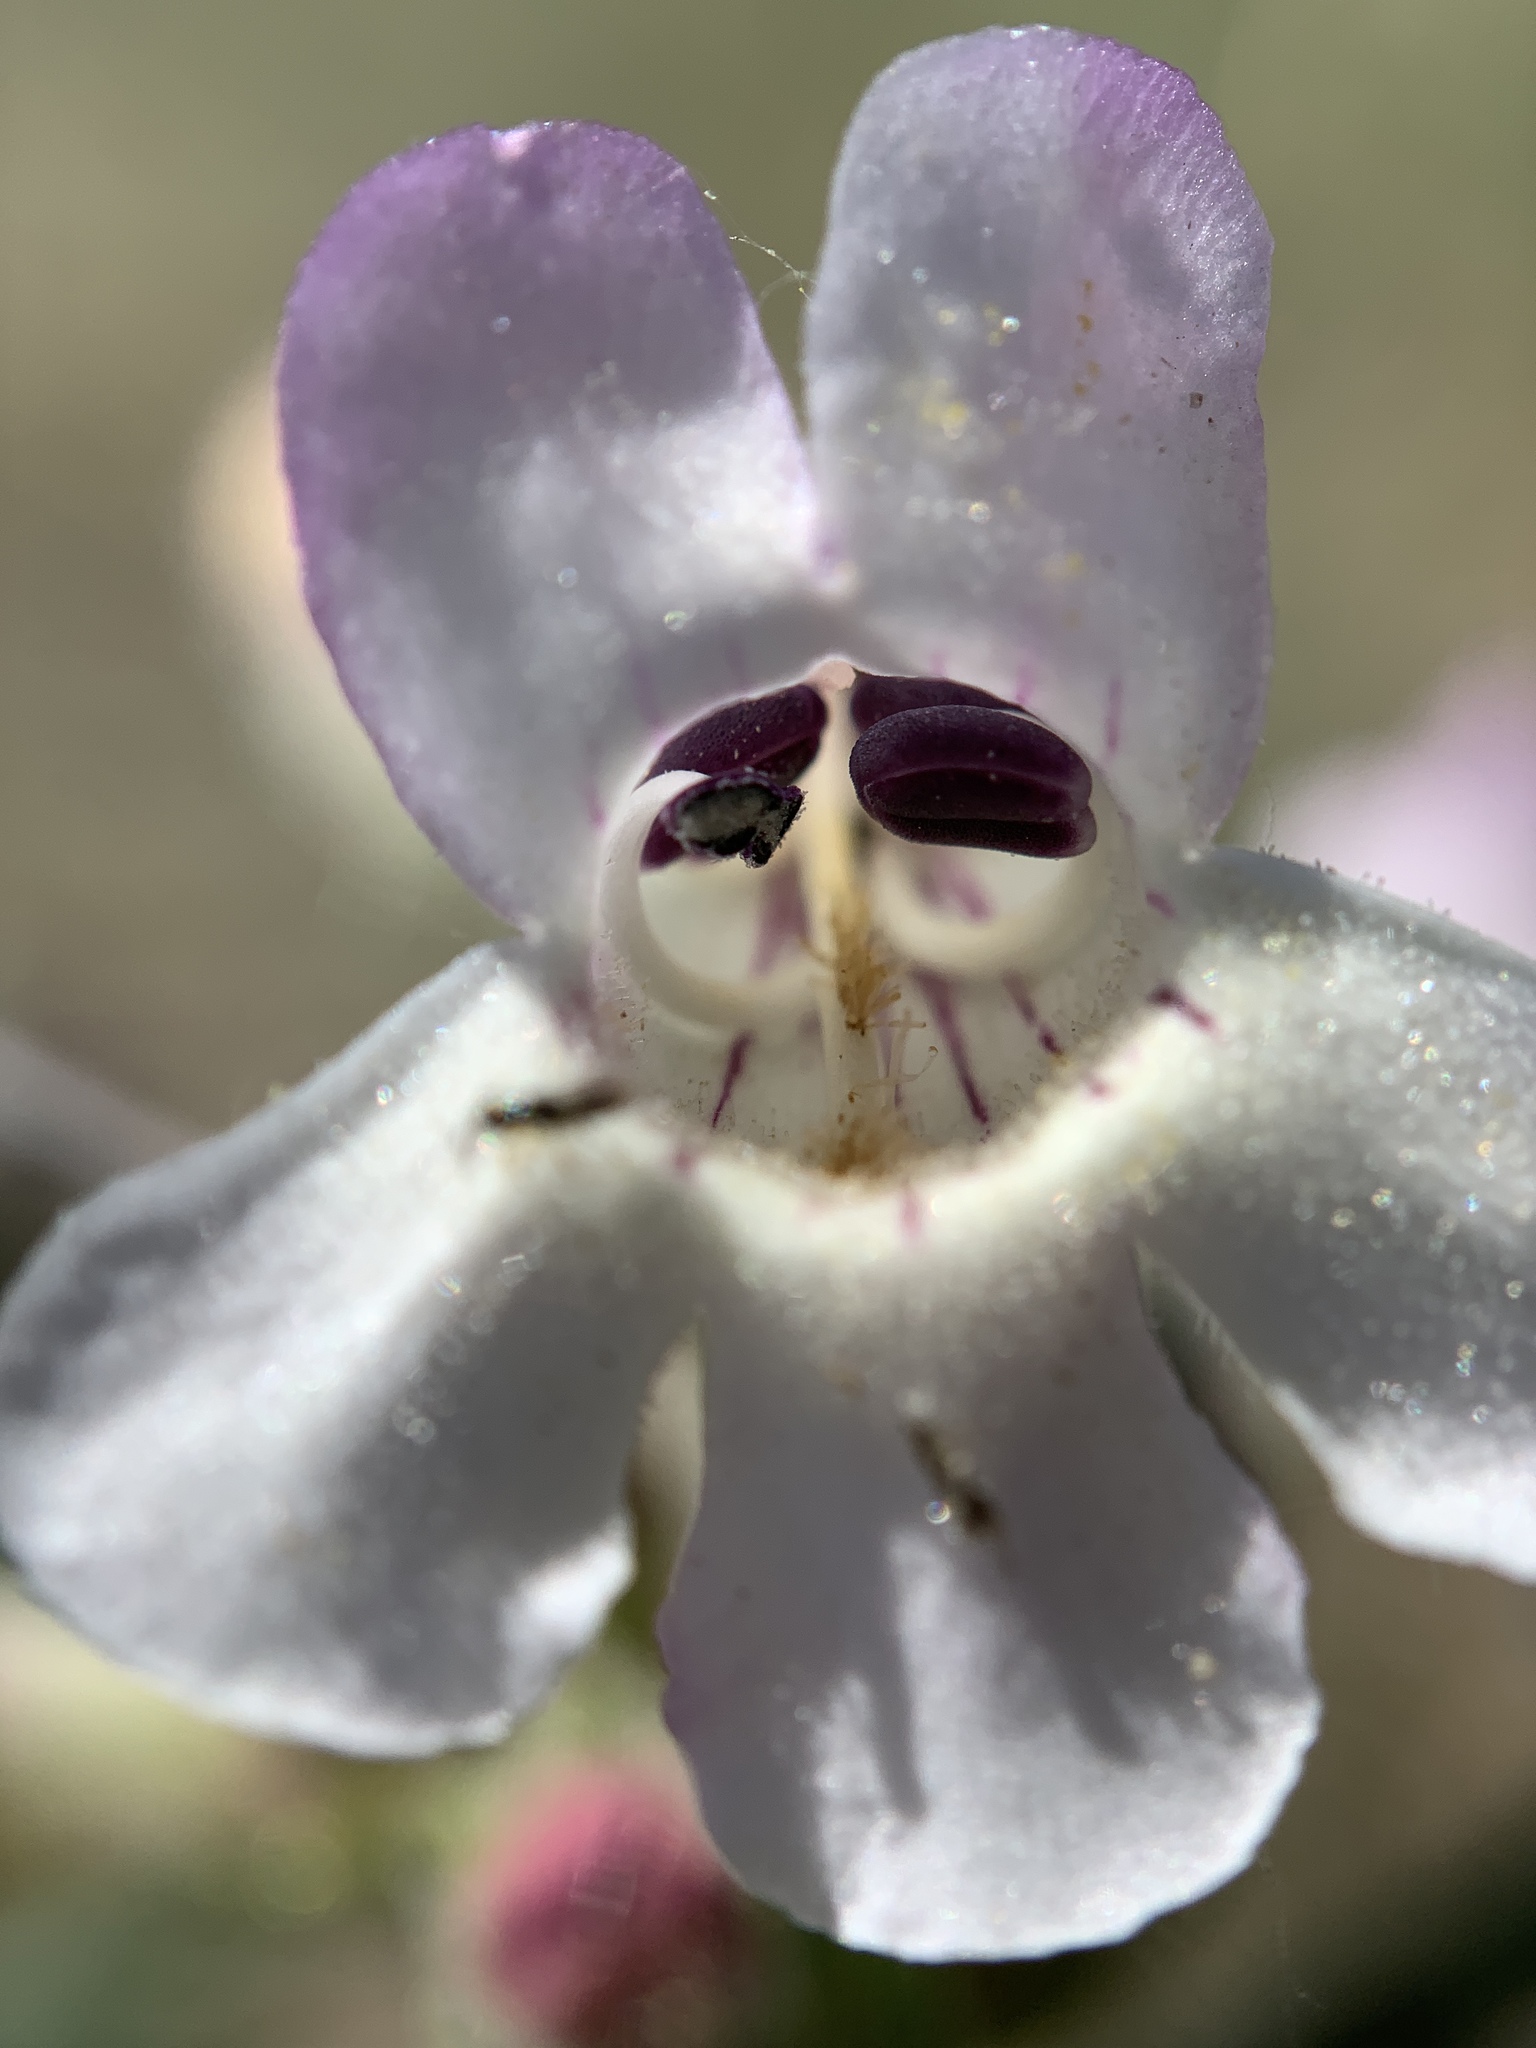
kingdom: Plantae
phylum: Tracheophyta
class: Magnoliopsida
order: Lamiales
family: Plantaginaceae
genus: Penstemon
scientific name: Penstemon albidus
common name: White beardtongue
